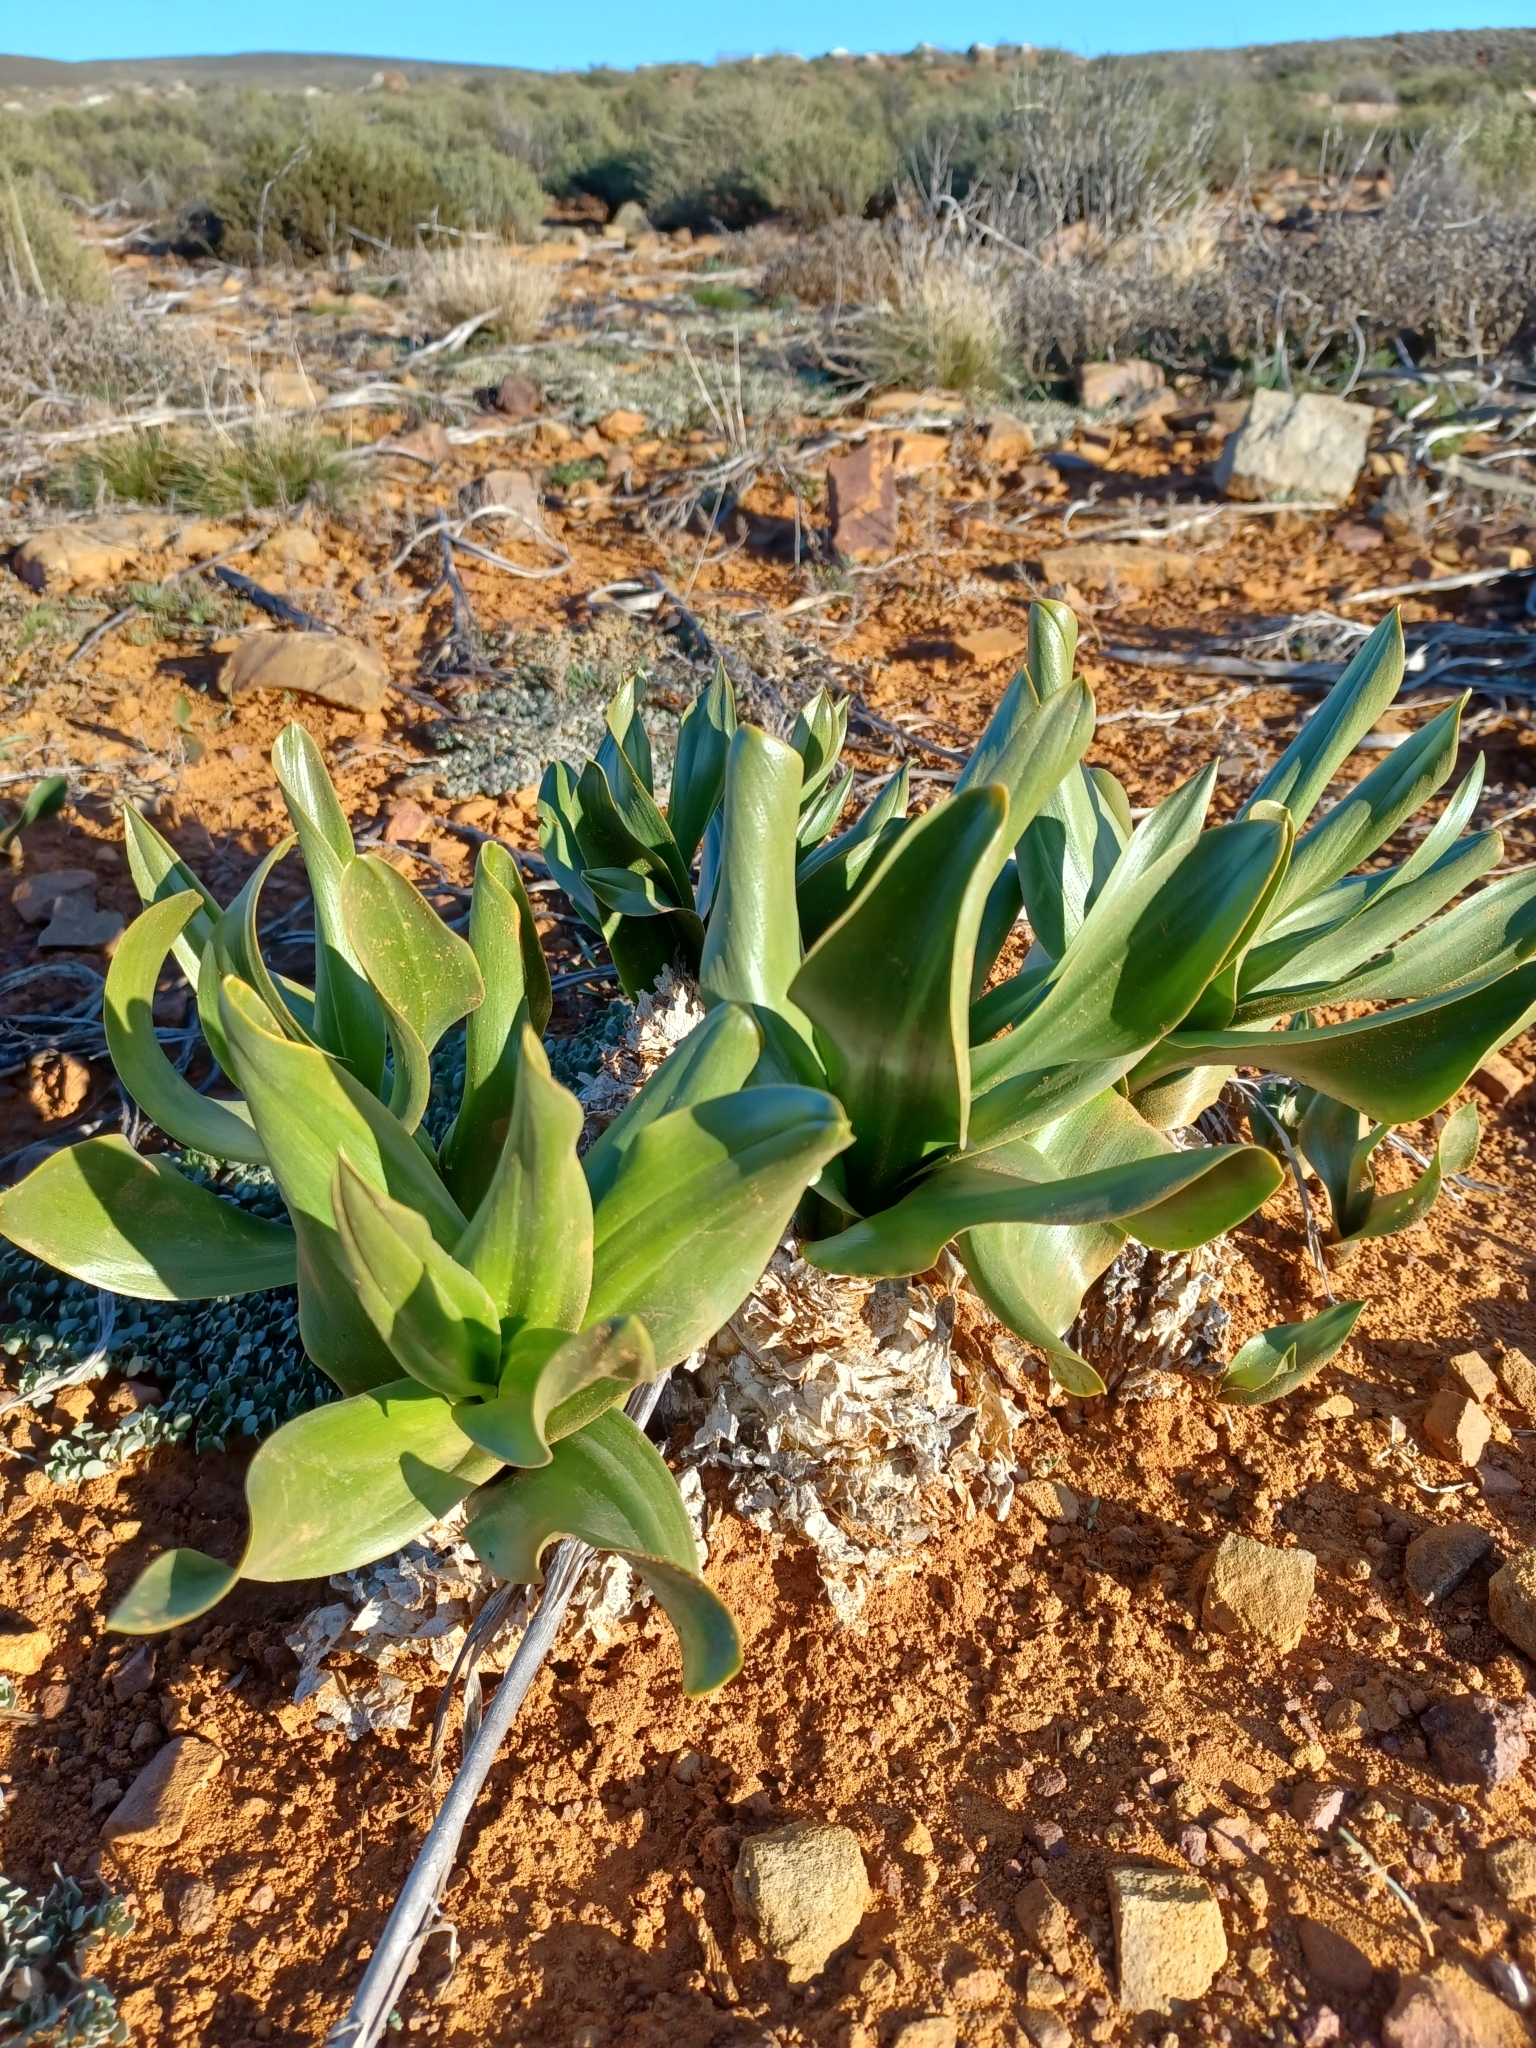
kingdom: Plantae
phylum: Tracheophyta
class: Liliopsida
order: Asparagales
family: Asparagaceae
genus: Fusifilum
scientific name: Fusifilum physodes
